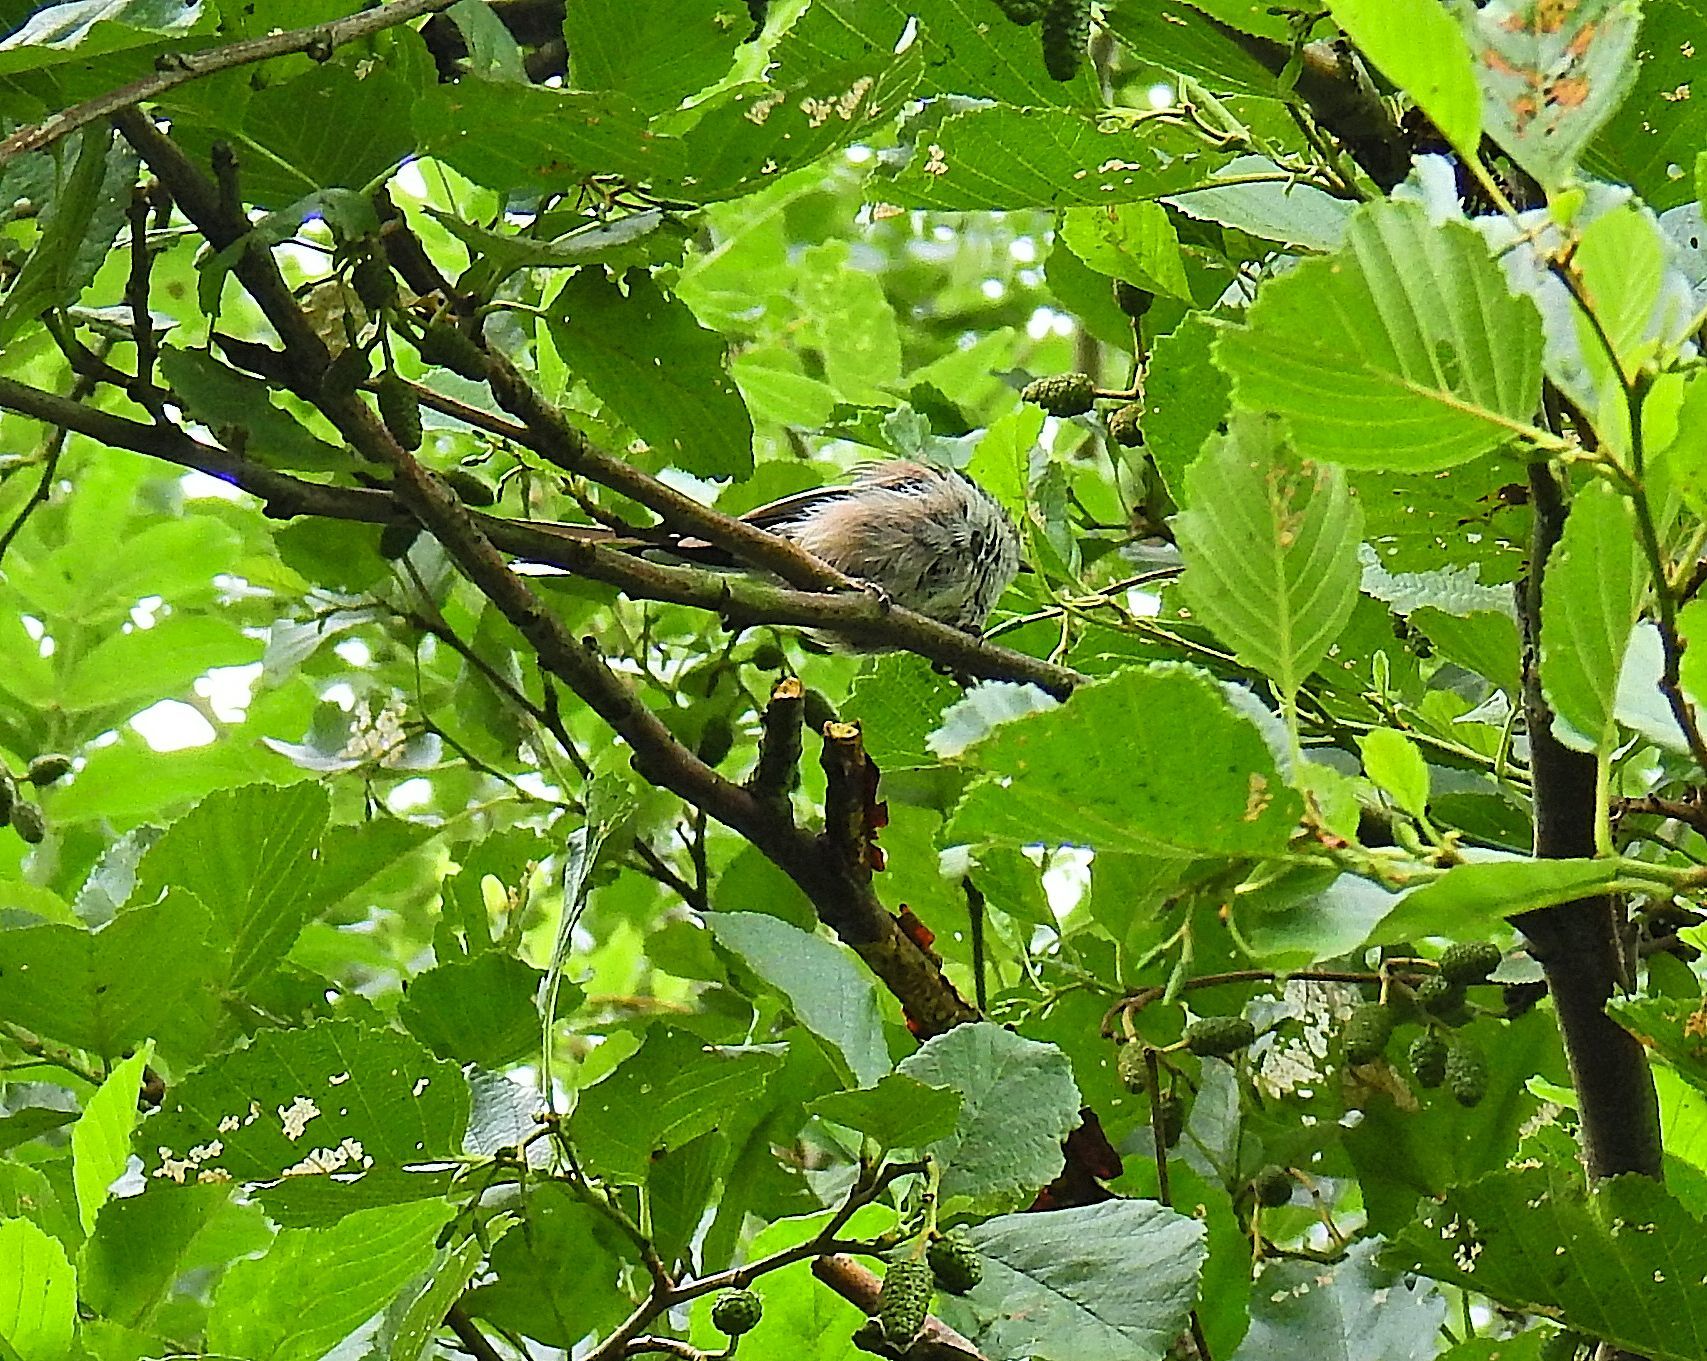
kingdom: Animalia
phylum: Chordata
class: Aves
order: Passeriformes
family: Aegithalidae
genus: Aegithalos
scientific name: Aegithalos caudatus
